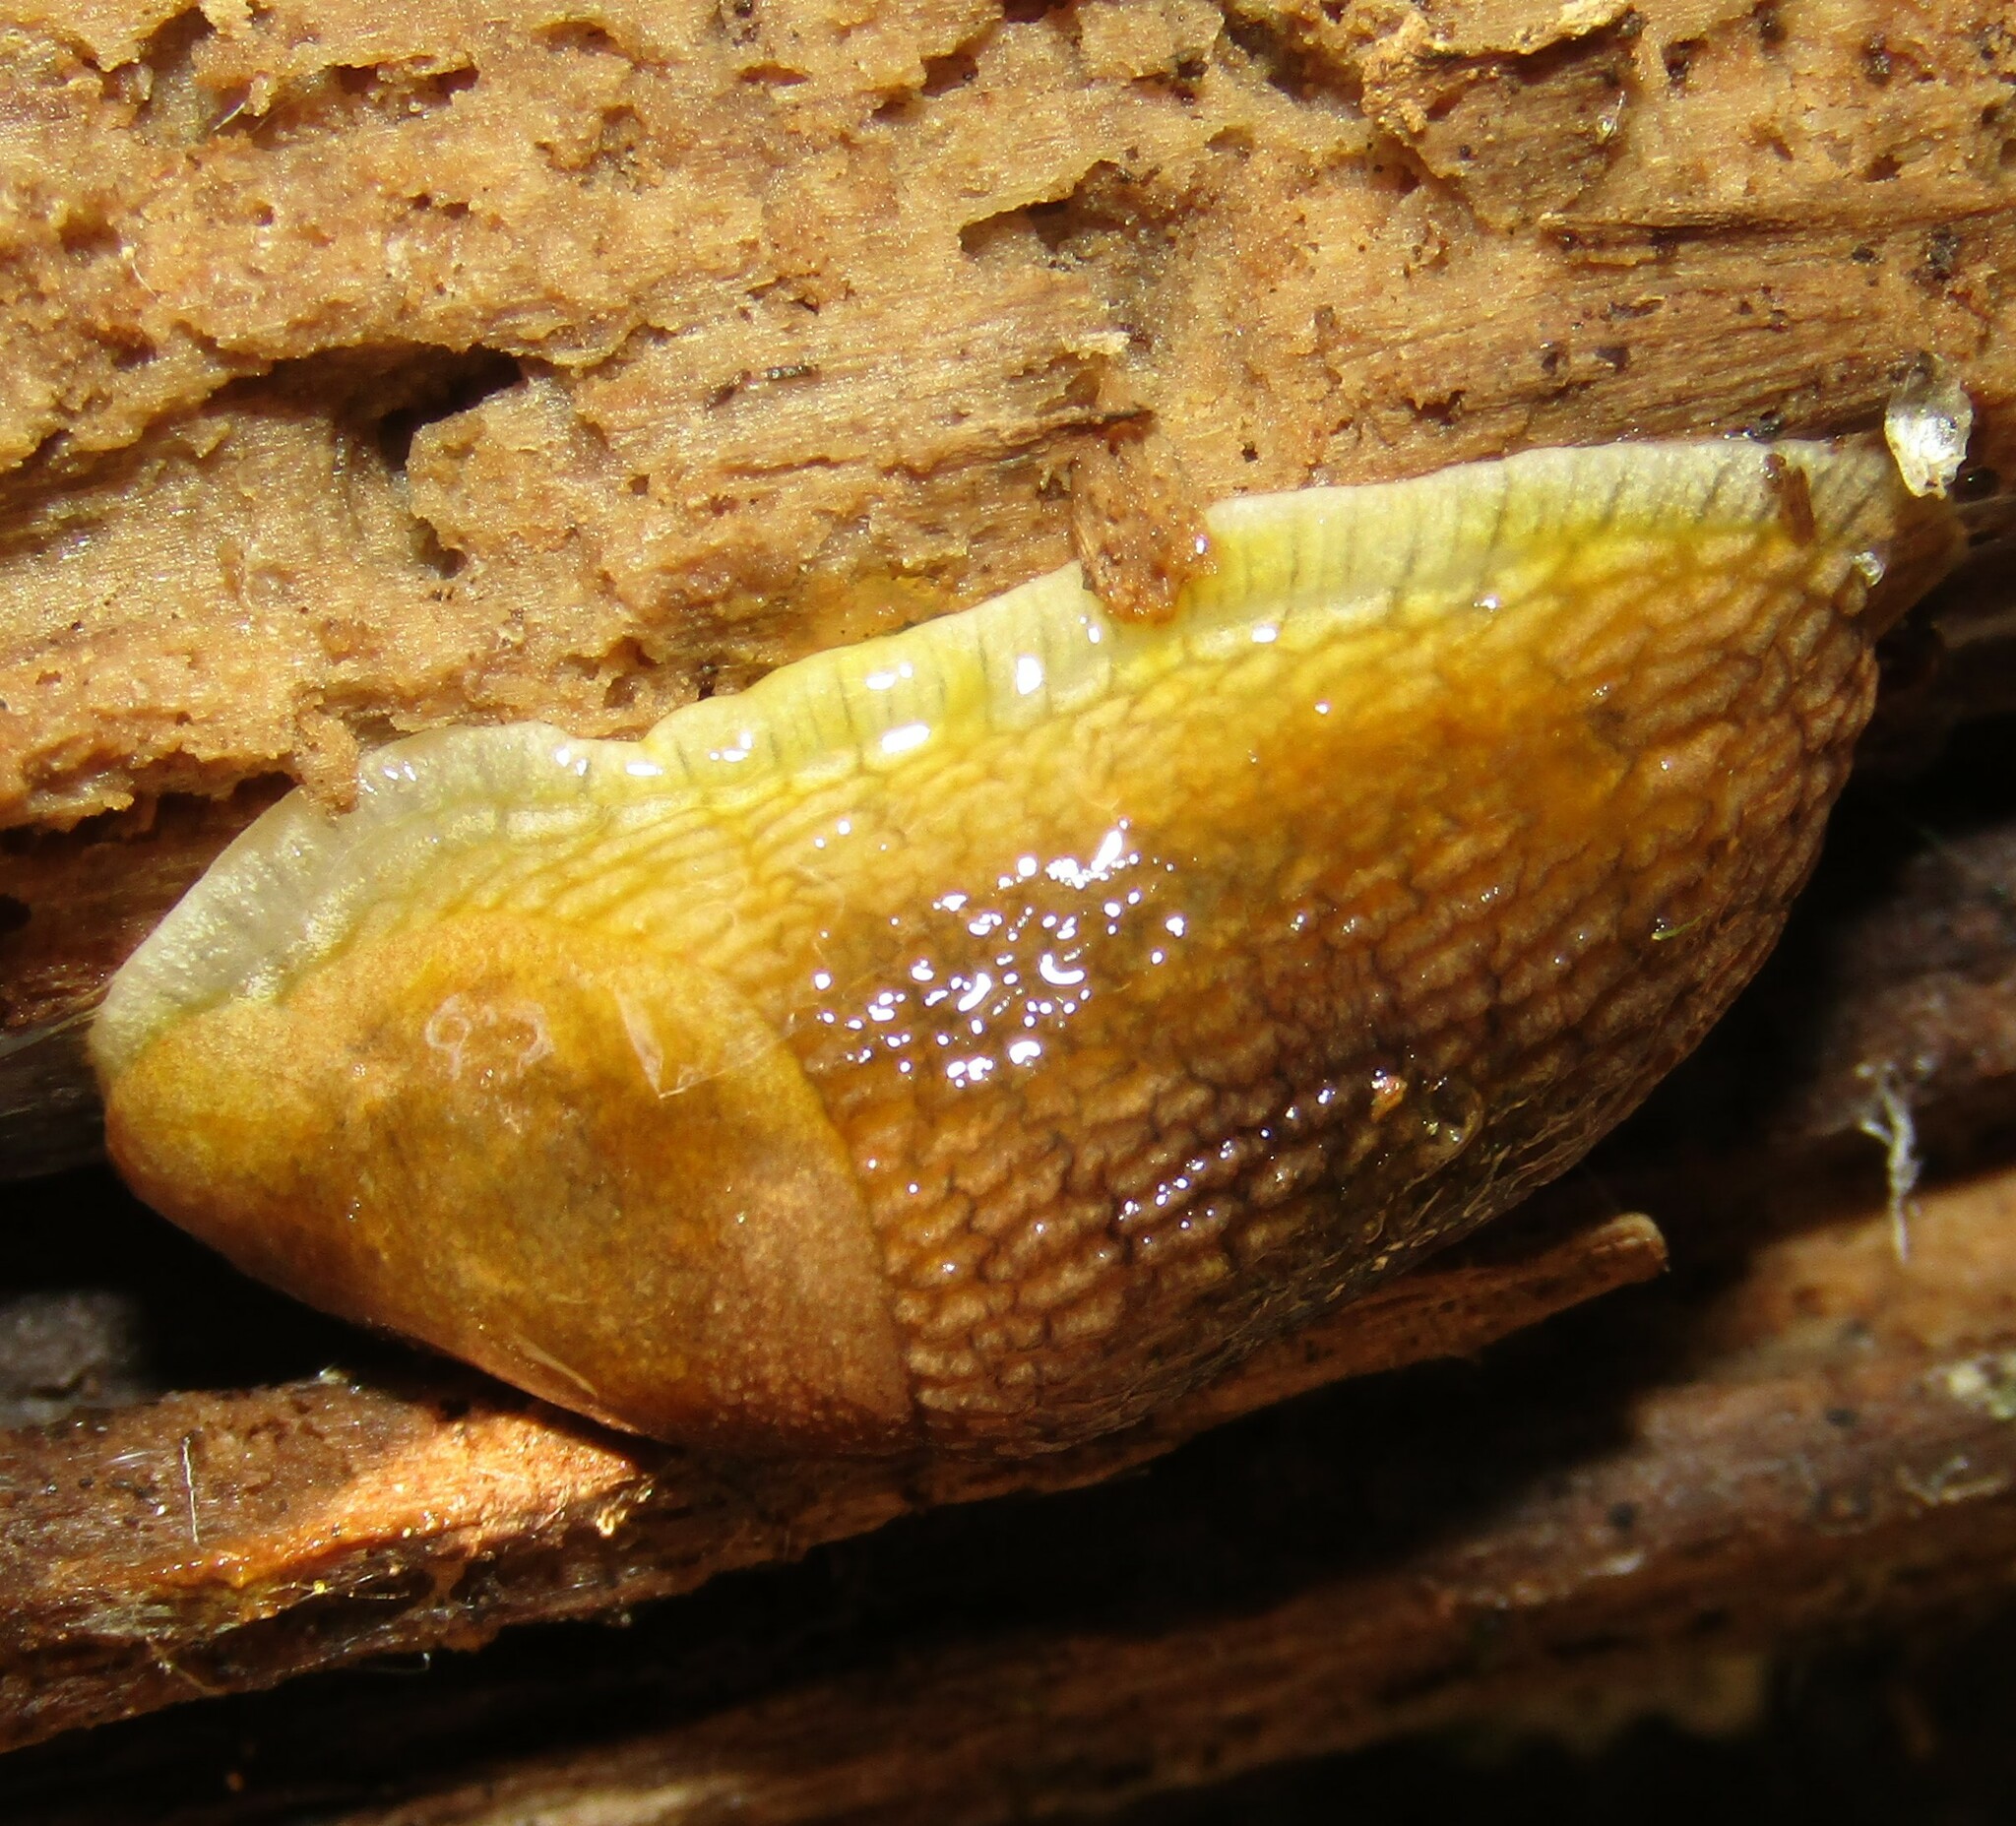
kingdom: Animalia
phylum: Mollusca
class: Gastropoda
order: Stylommatophora
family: Arionidae
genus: Arion
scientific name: Arion fuscus
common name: Northern dusky slug
